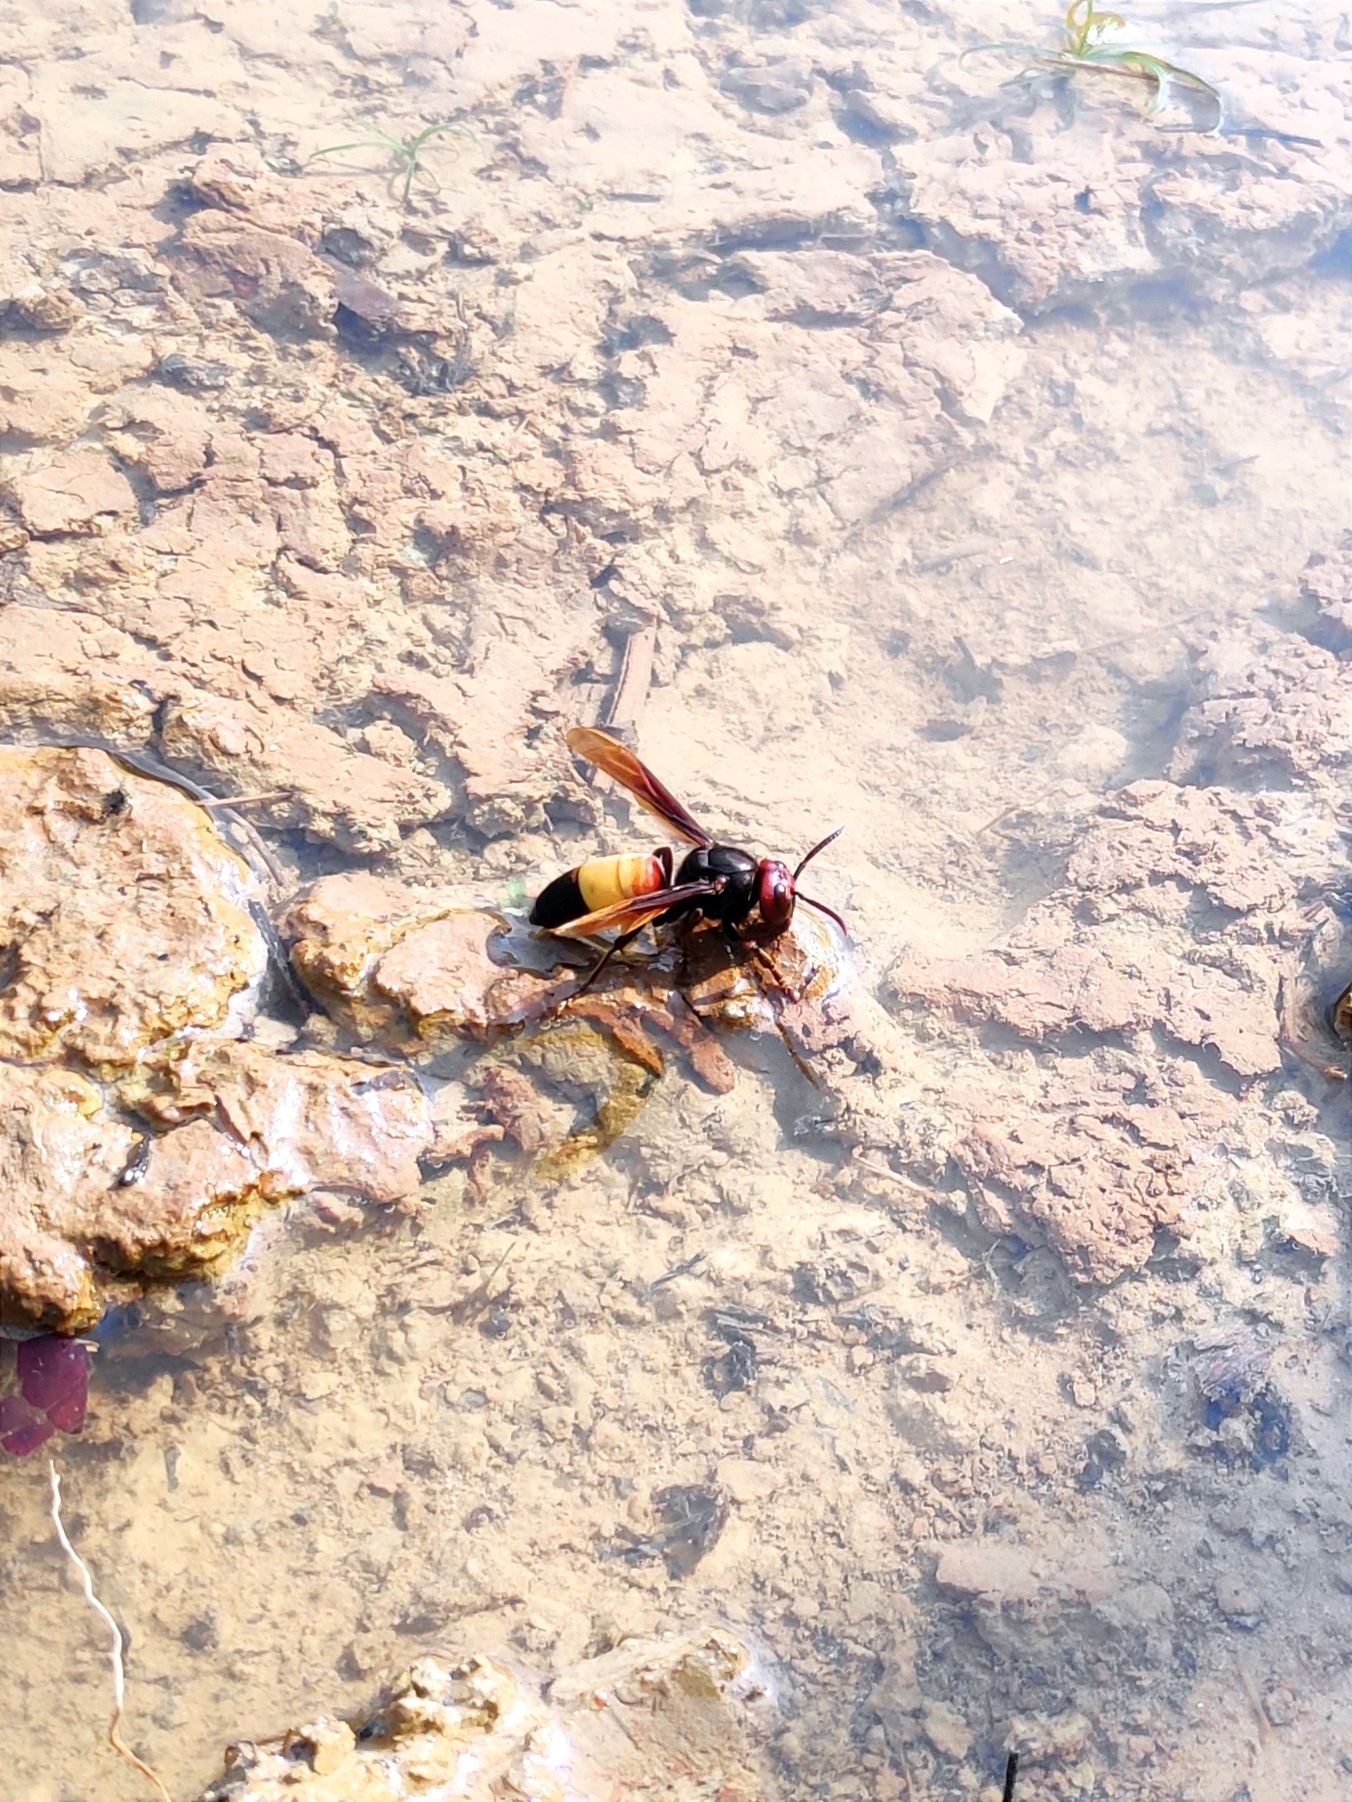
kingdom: Animalia
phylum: Arthropoda
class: Insecta
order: Hymenoptera
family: Vespidae
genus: Vespa
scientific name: Vespa tropica
